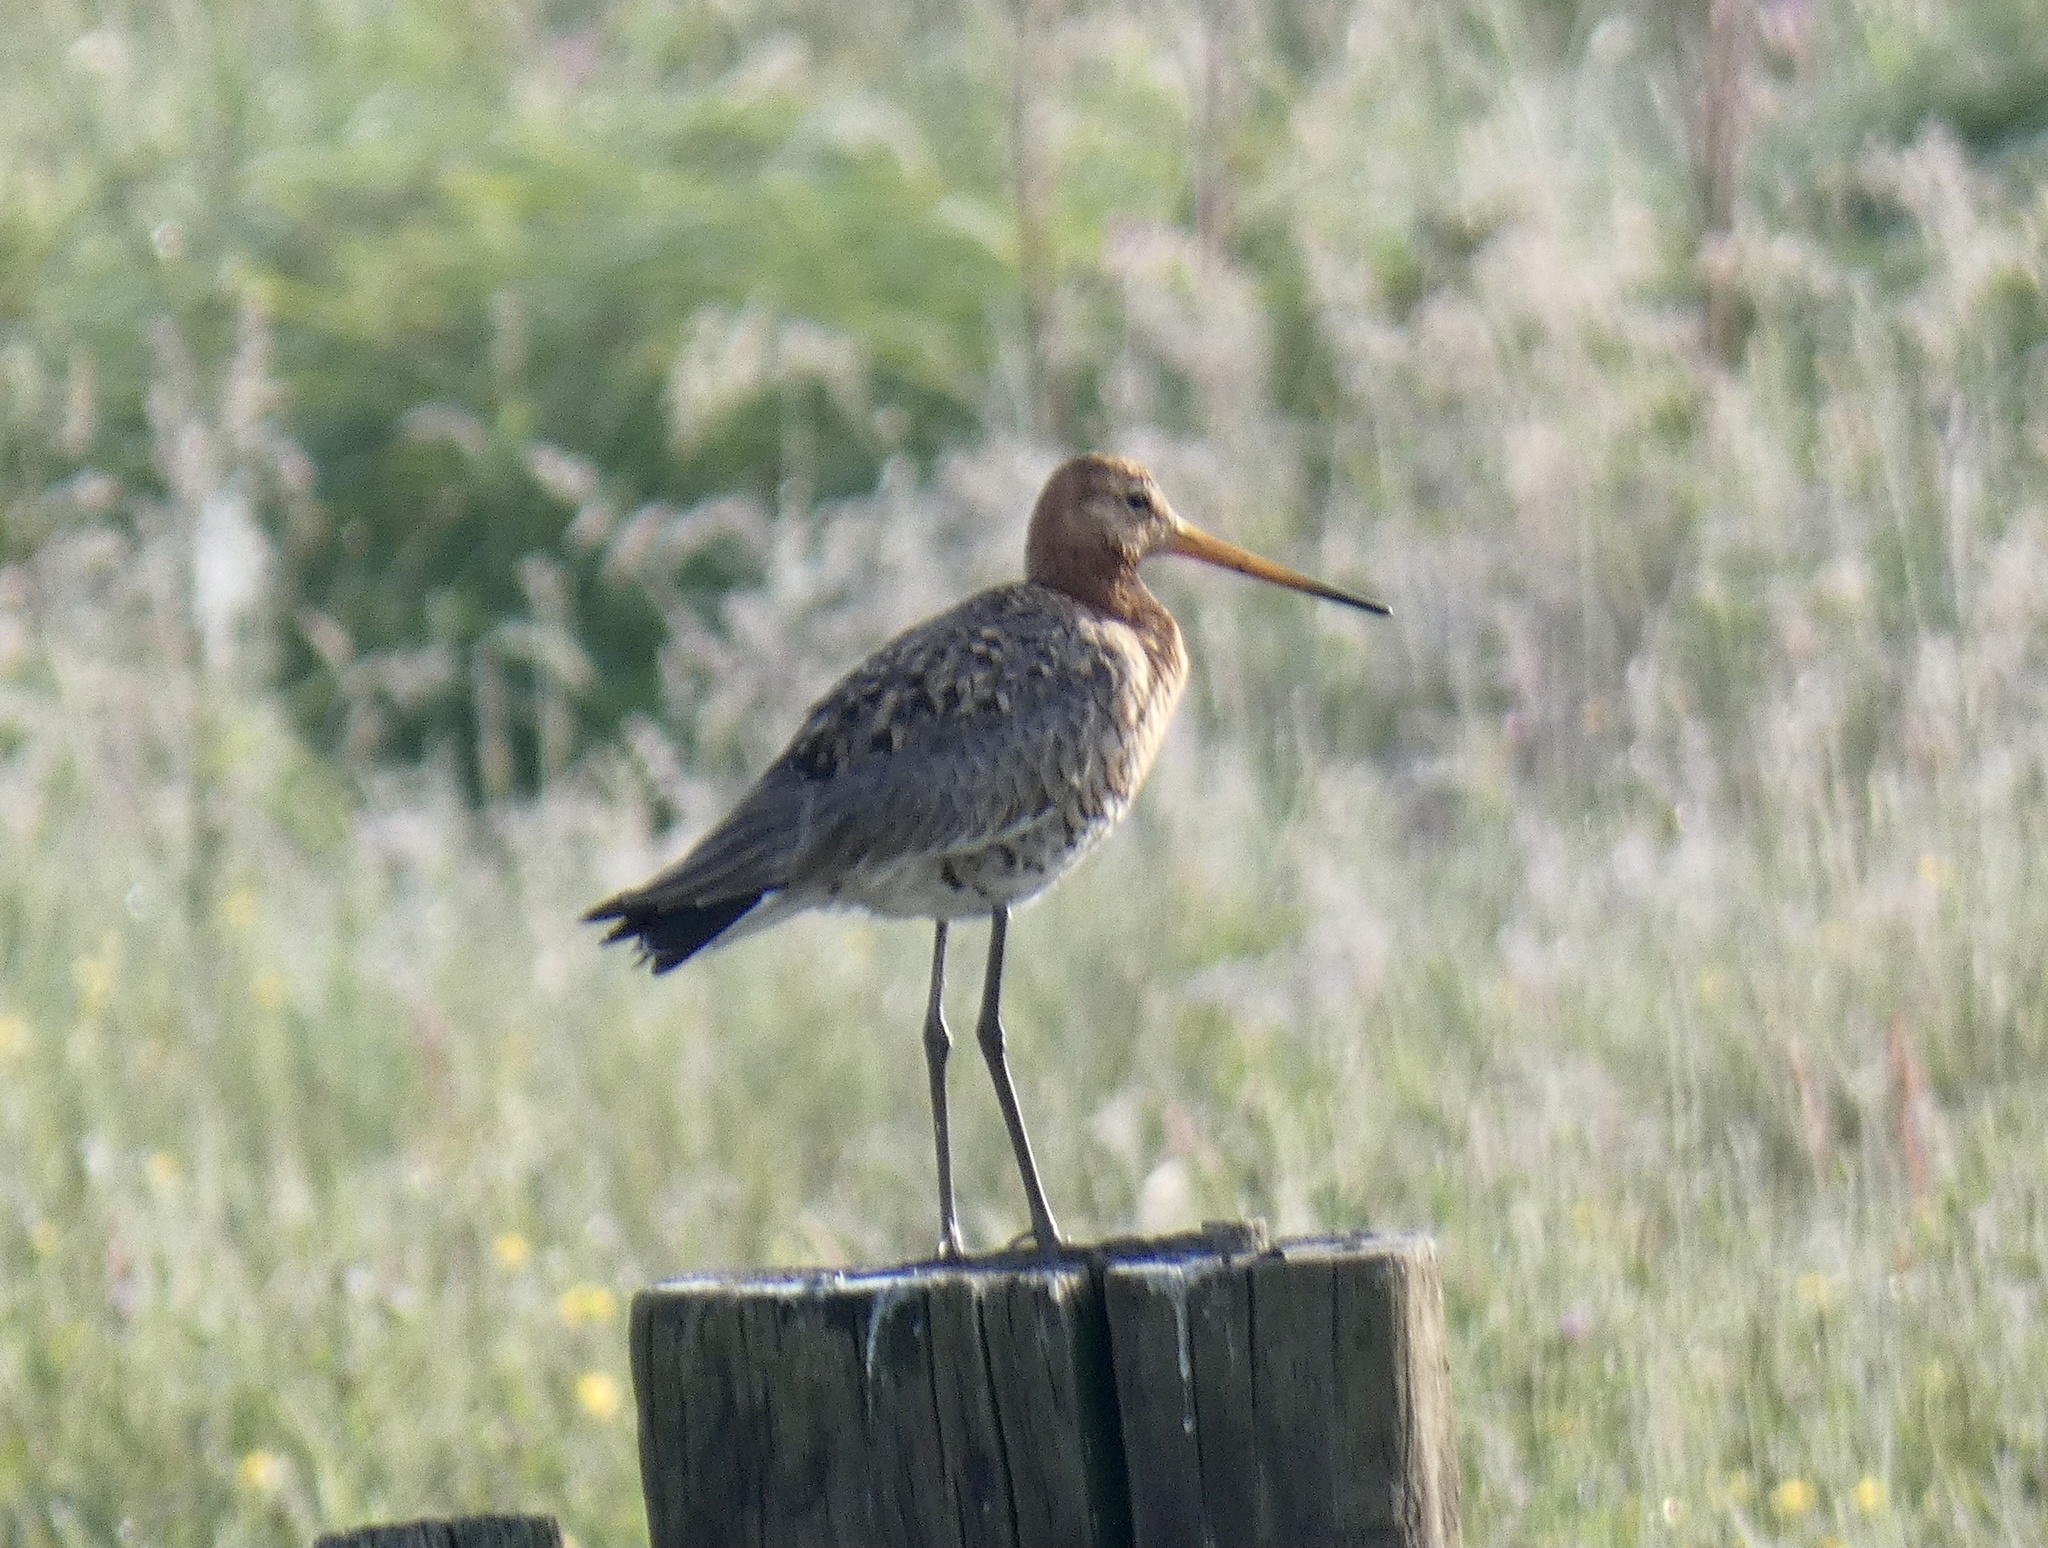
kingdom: Animalia
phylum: Chordata
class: Aves
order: Charadriiformes
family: Scolopacidae
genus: Limosa
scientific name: Limosa limosa
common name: Black-tailed godwit
